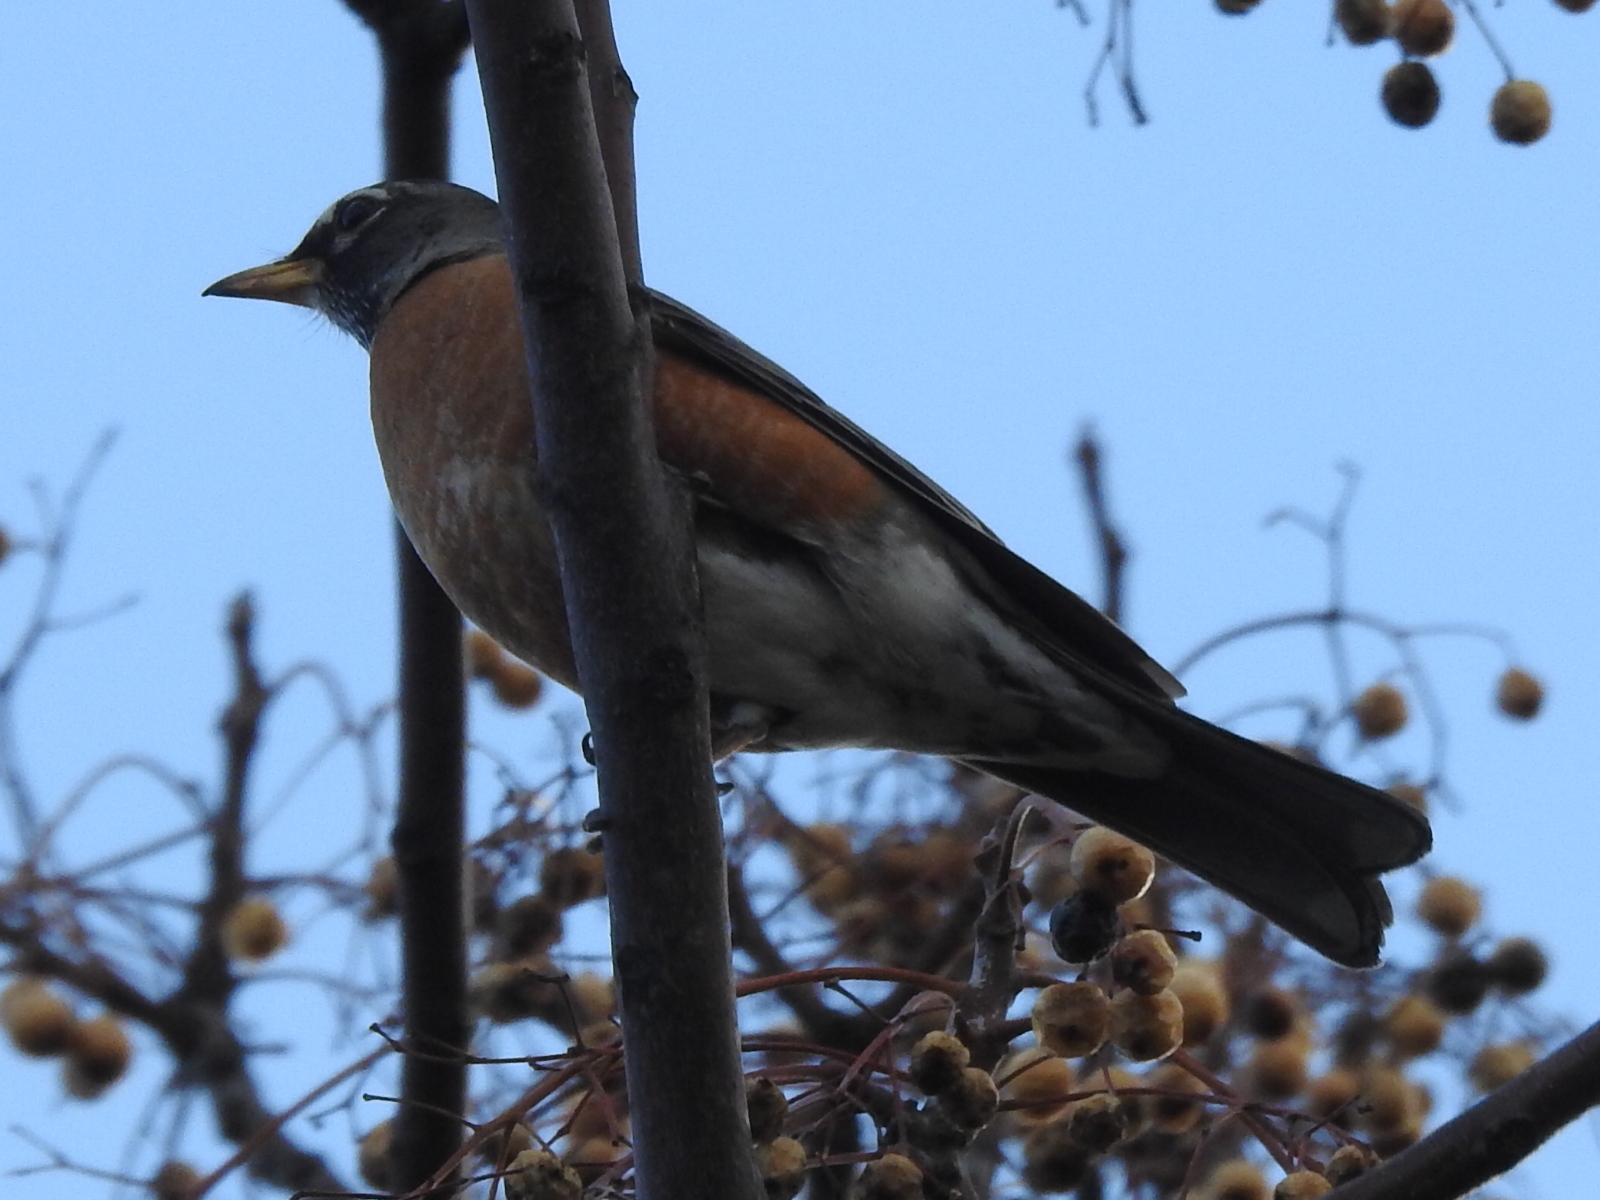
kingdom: Animalia
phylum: Chordata
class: Aves
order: Passeriformes
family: Turdidae
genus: Turdus
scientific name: Turdus migratorius
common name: American robin
